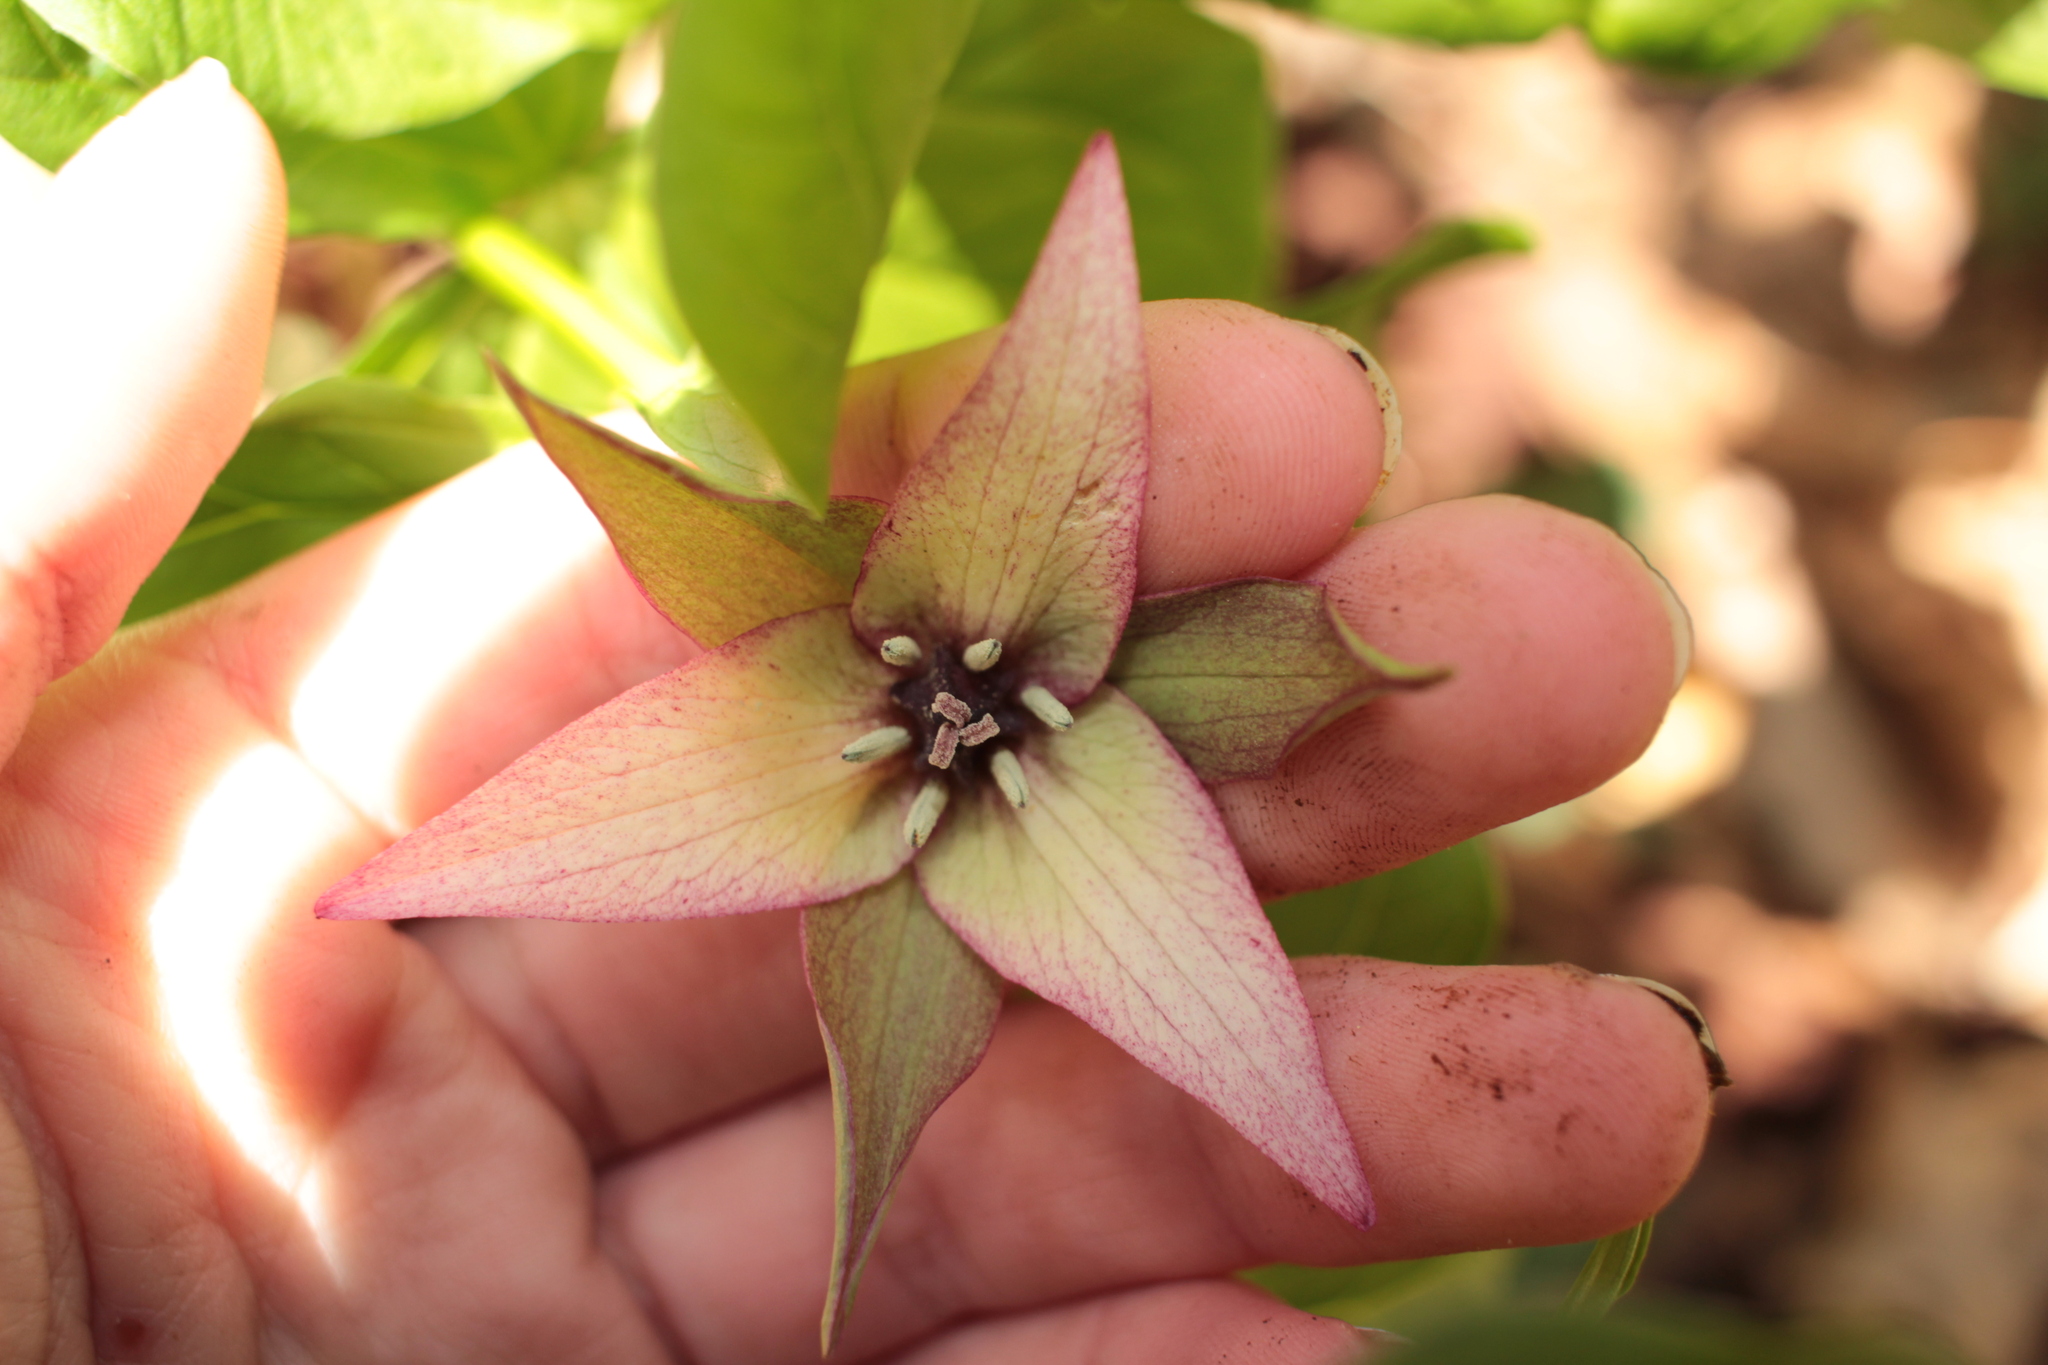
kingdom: Plantae
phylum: Tracheophyta
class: Liliopsida
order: Liliales
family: Melanthiaceae
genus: Trillium
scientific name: Trillium erectum
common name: Purple trillium
